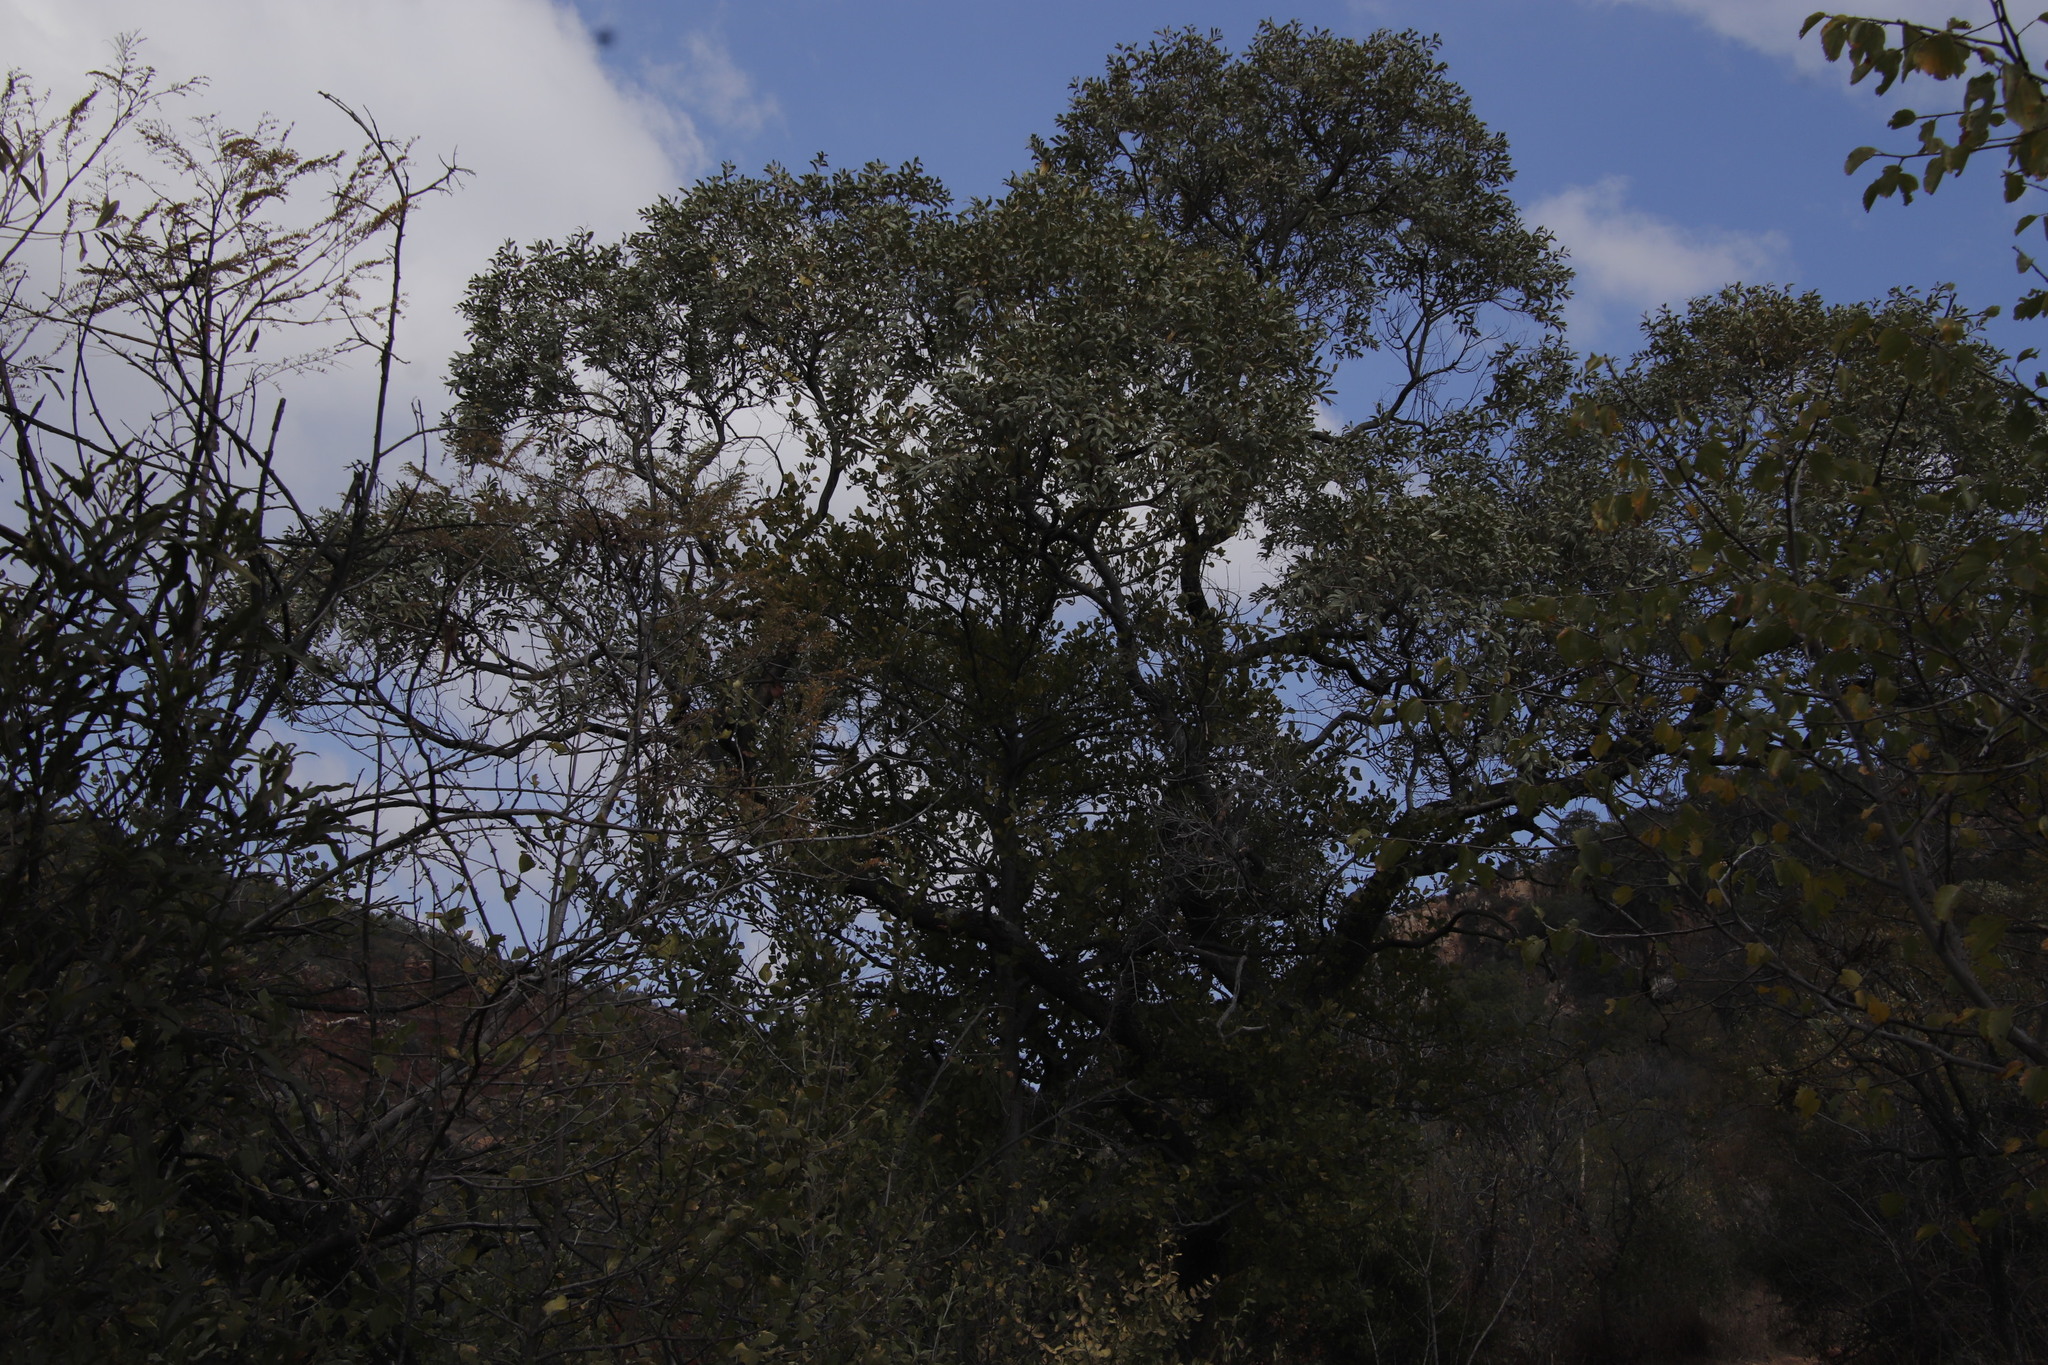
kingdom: Plantae
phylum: Tracheophyta
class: Magnoliopsida
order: Gentianales
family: Rubiaceae
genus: Afrocanthium
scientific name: Afrocanthium gilfillanii
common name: Velvet rock-alder
